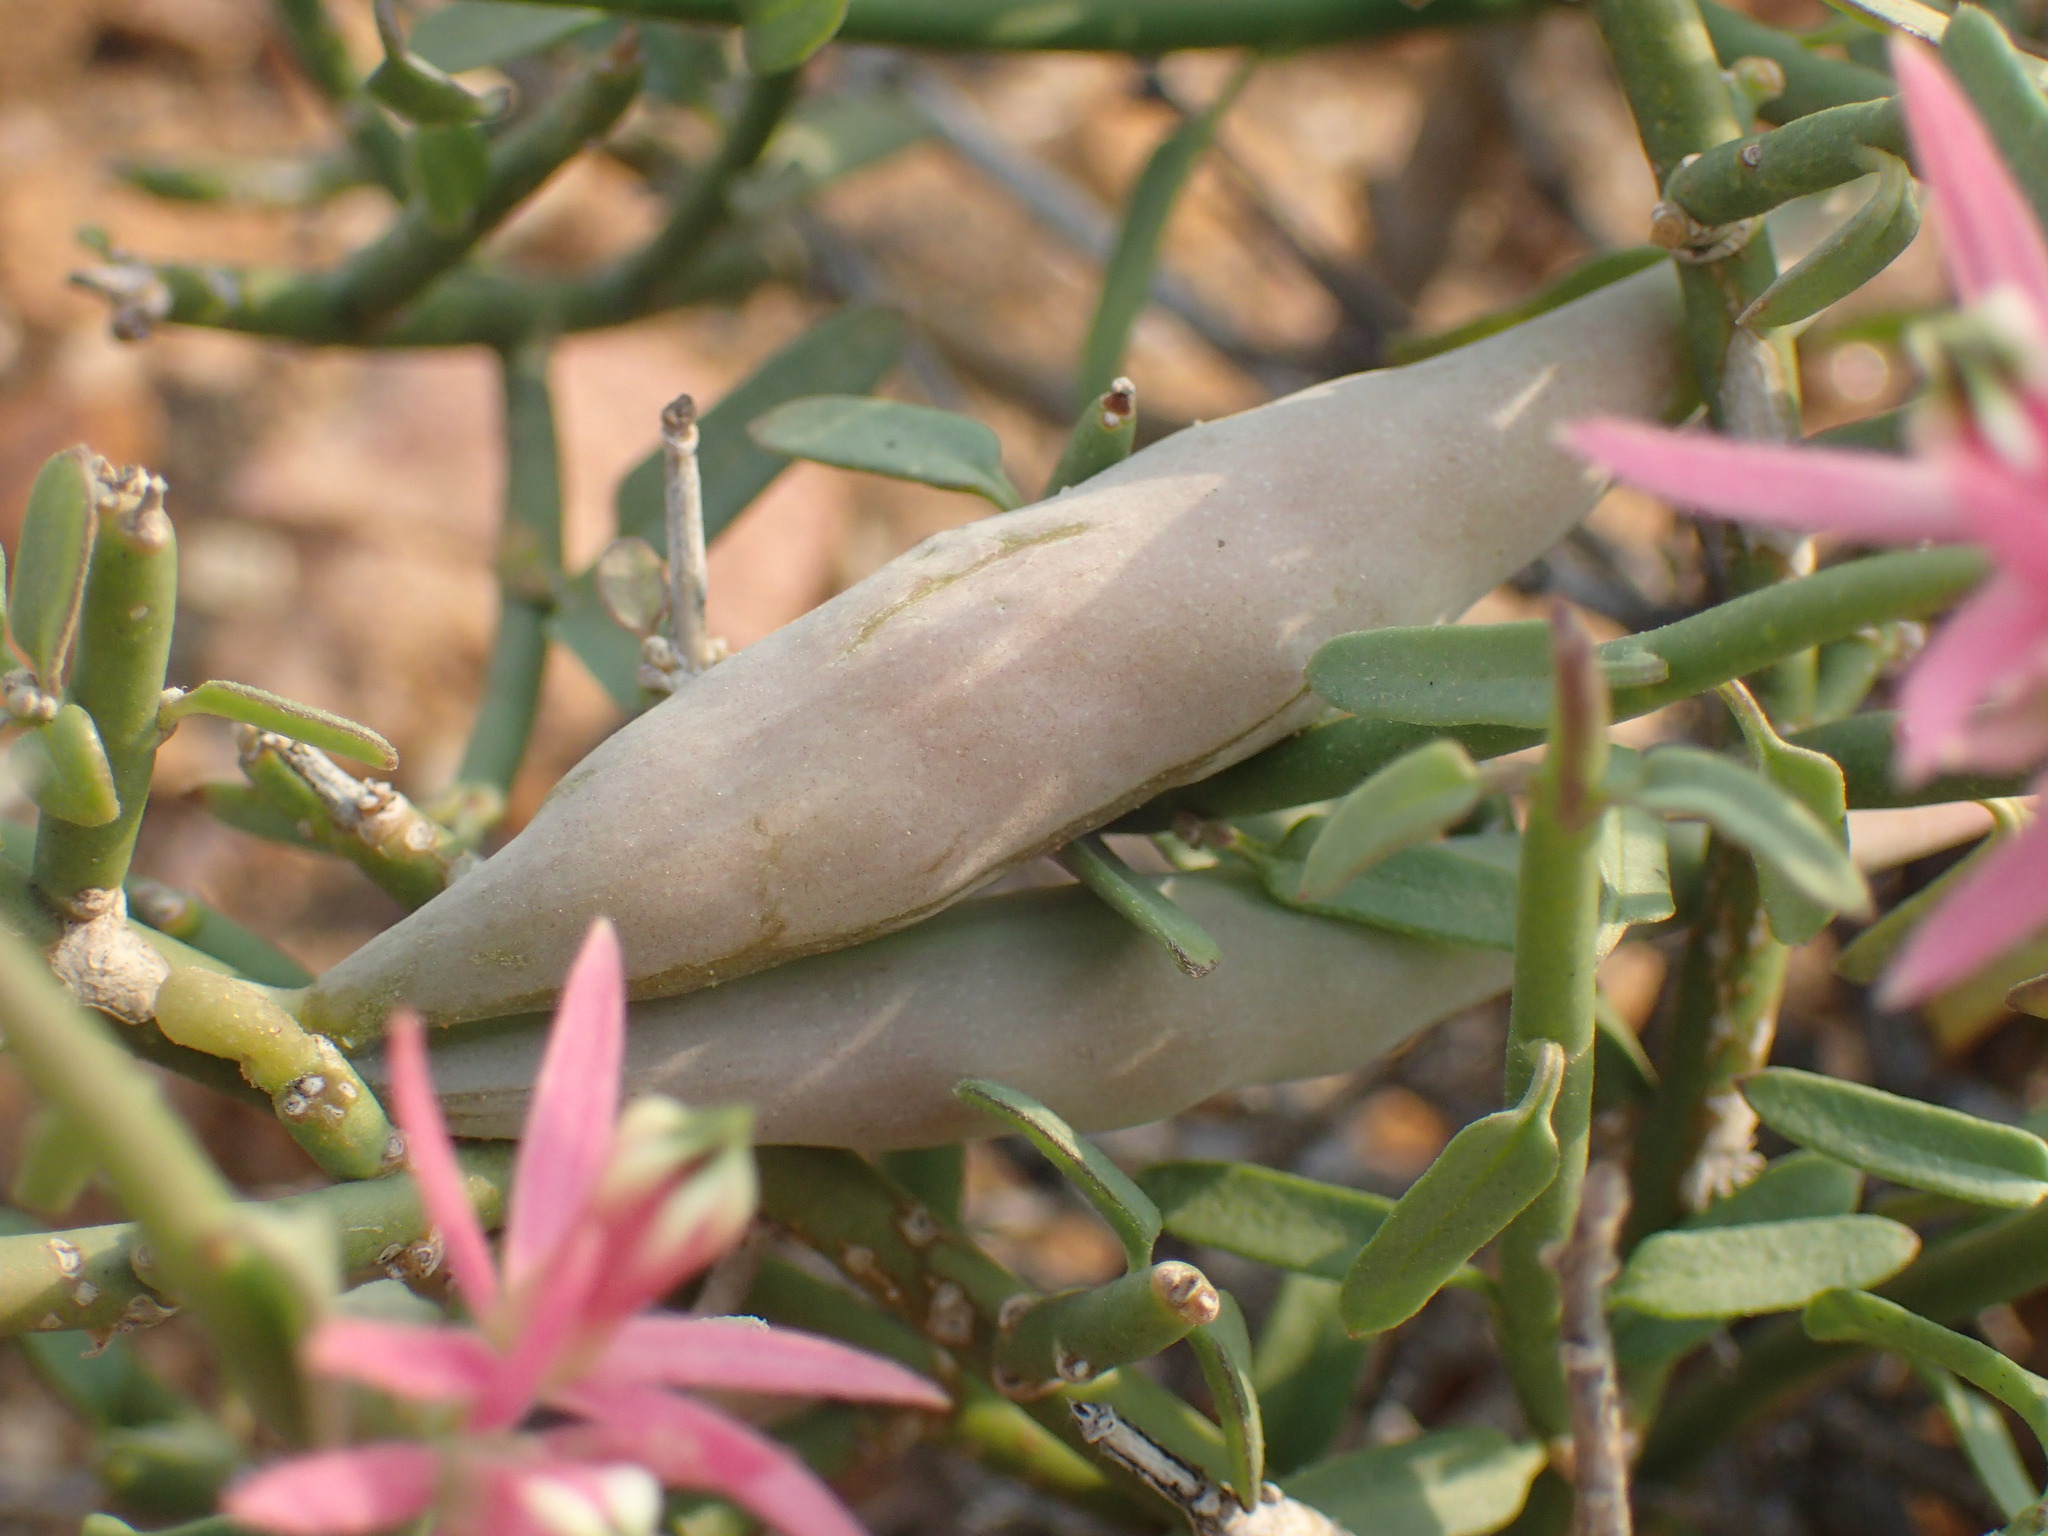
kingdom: Plantae
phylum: Tracheophyta
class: Magnoliopsida
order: Gentianales
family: Apocynaceae
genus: Microloma
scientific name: Microloma calycinum
